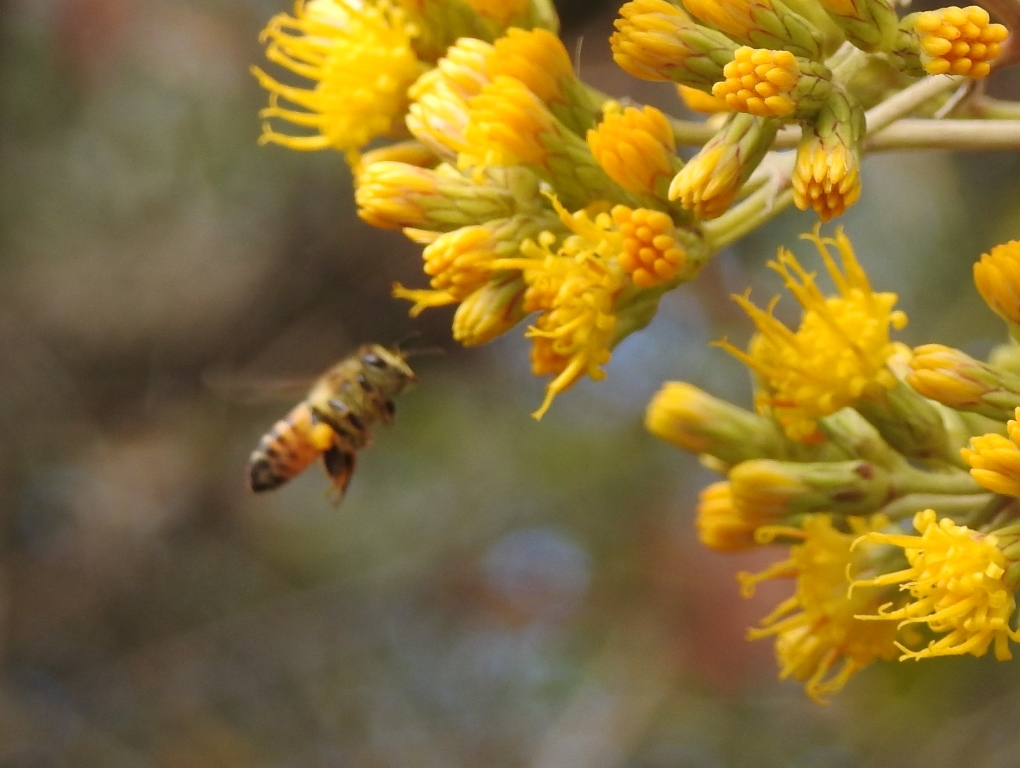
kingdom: Animalia
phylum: Arthropoda
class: Insecta
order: Hymenoptera
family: Apidae
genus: Apis
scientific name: Apis mellifera
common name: Honey bee
